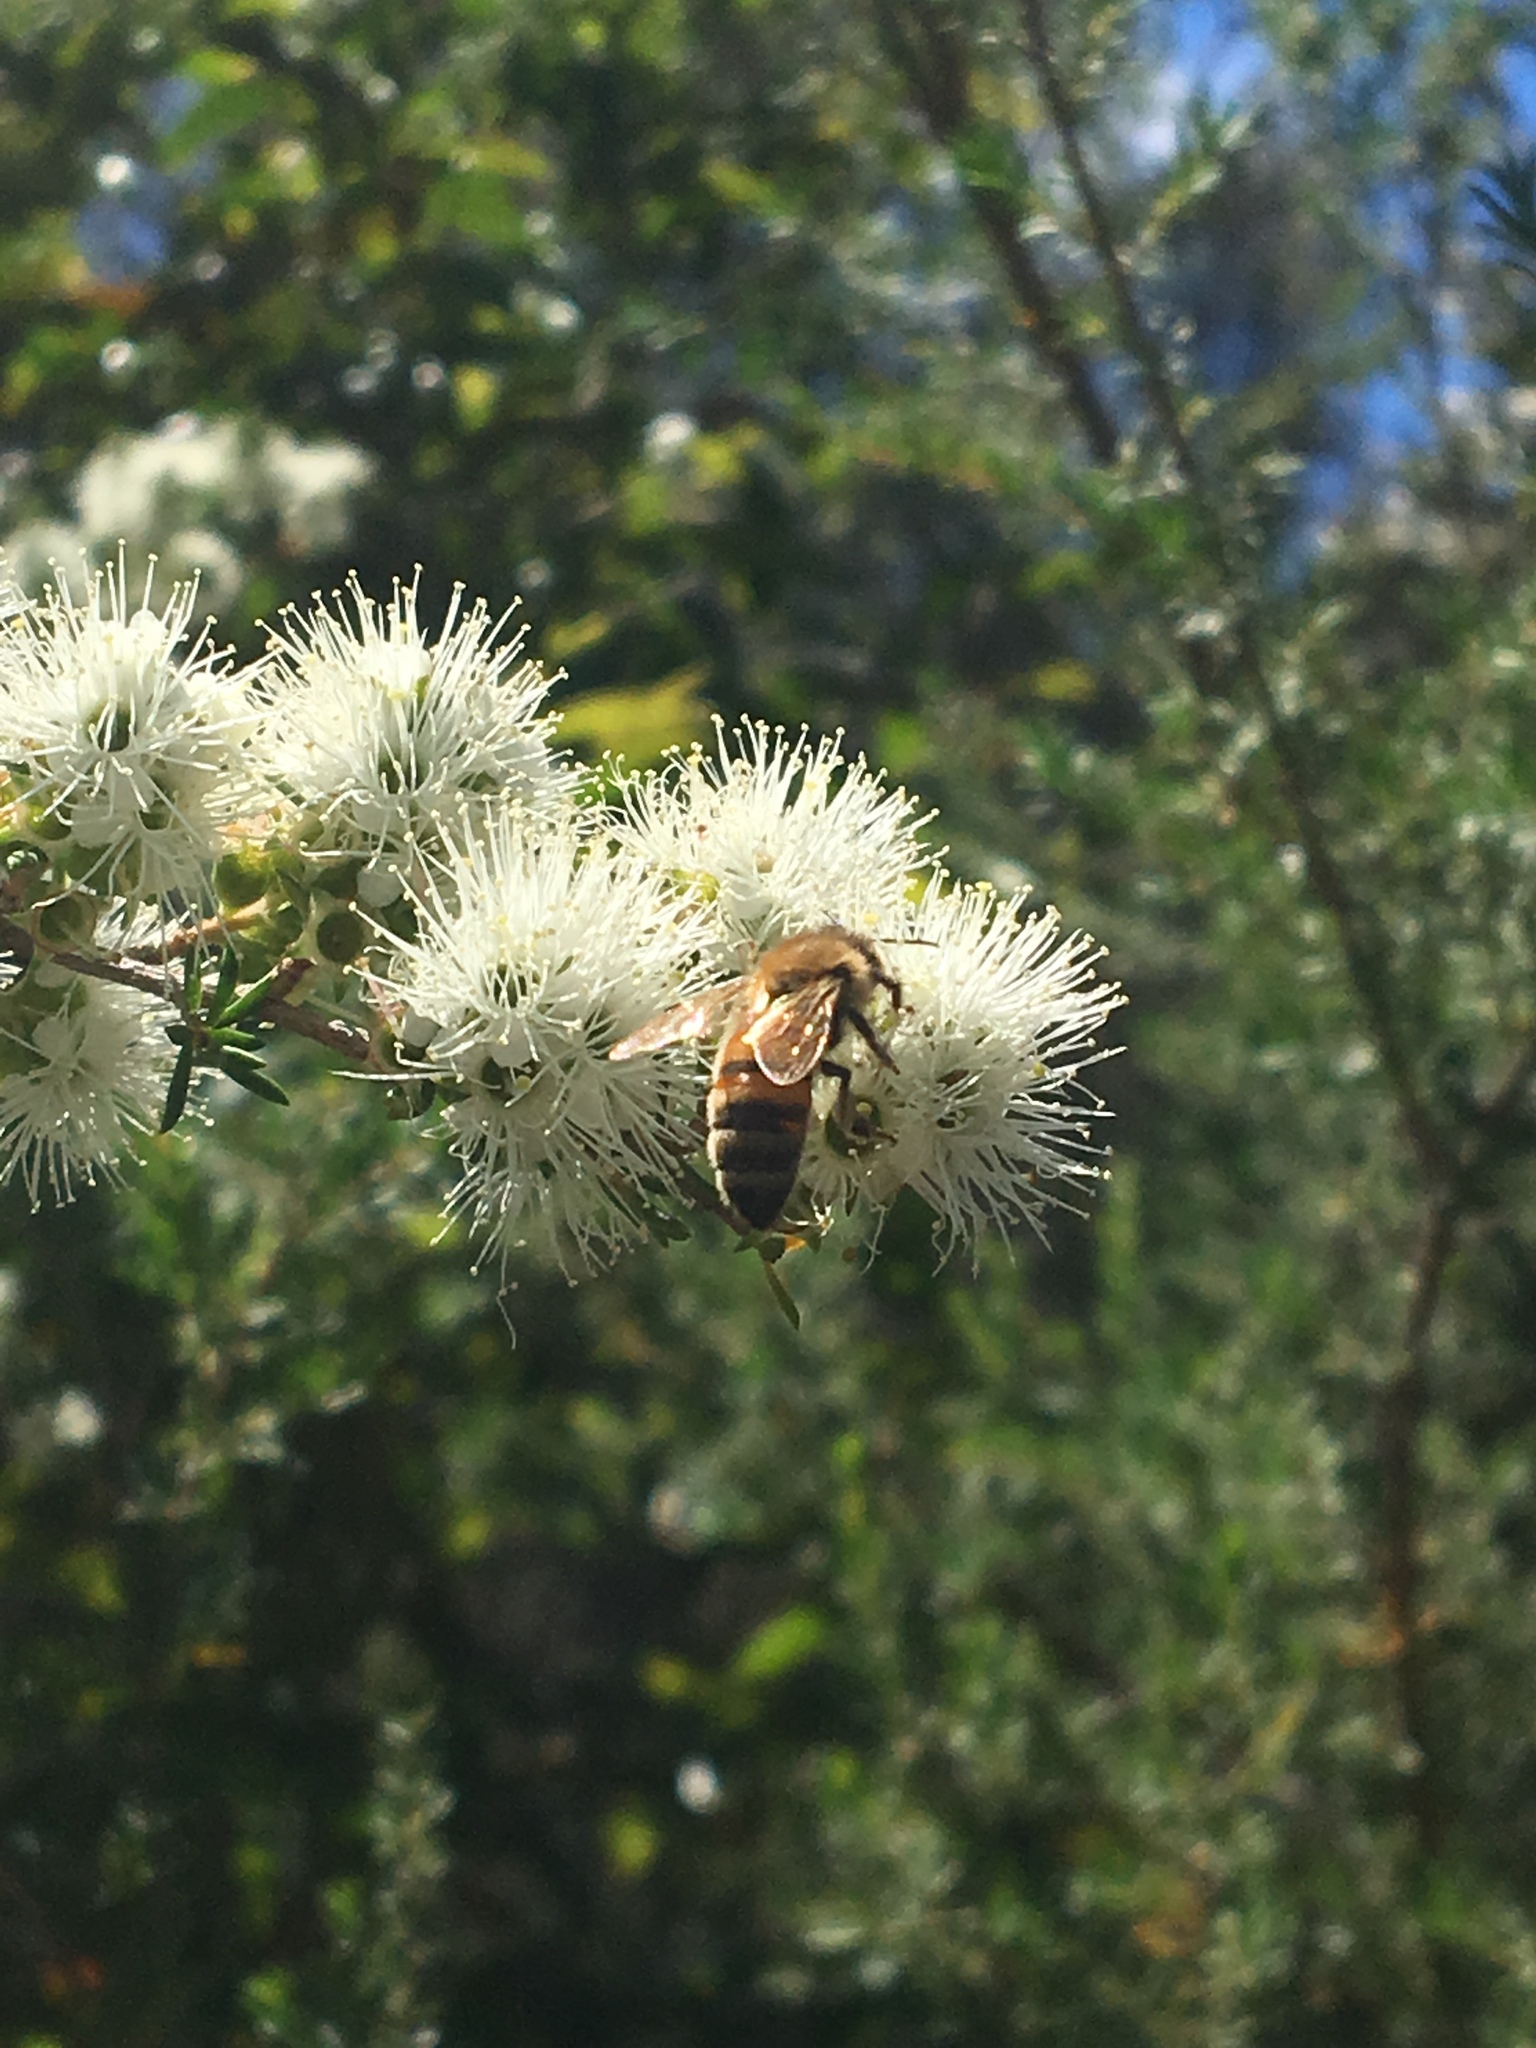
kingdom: Animalia
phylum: Arthropoda
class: Insecta
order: Hymenoptera
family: Apidae
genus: Apis
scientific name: Apis mellifera
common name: Honey bee
